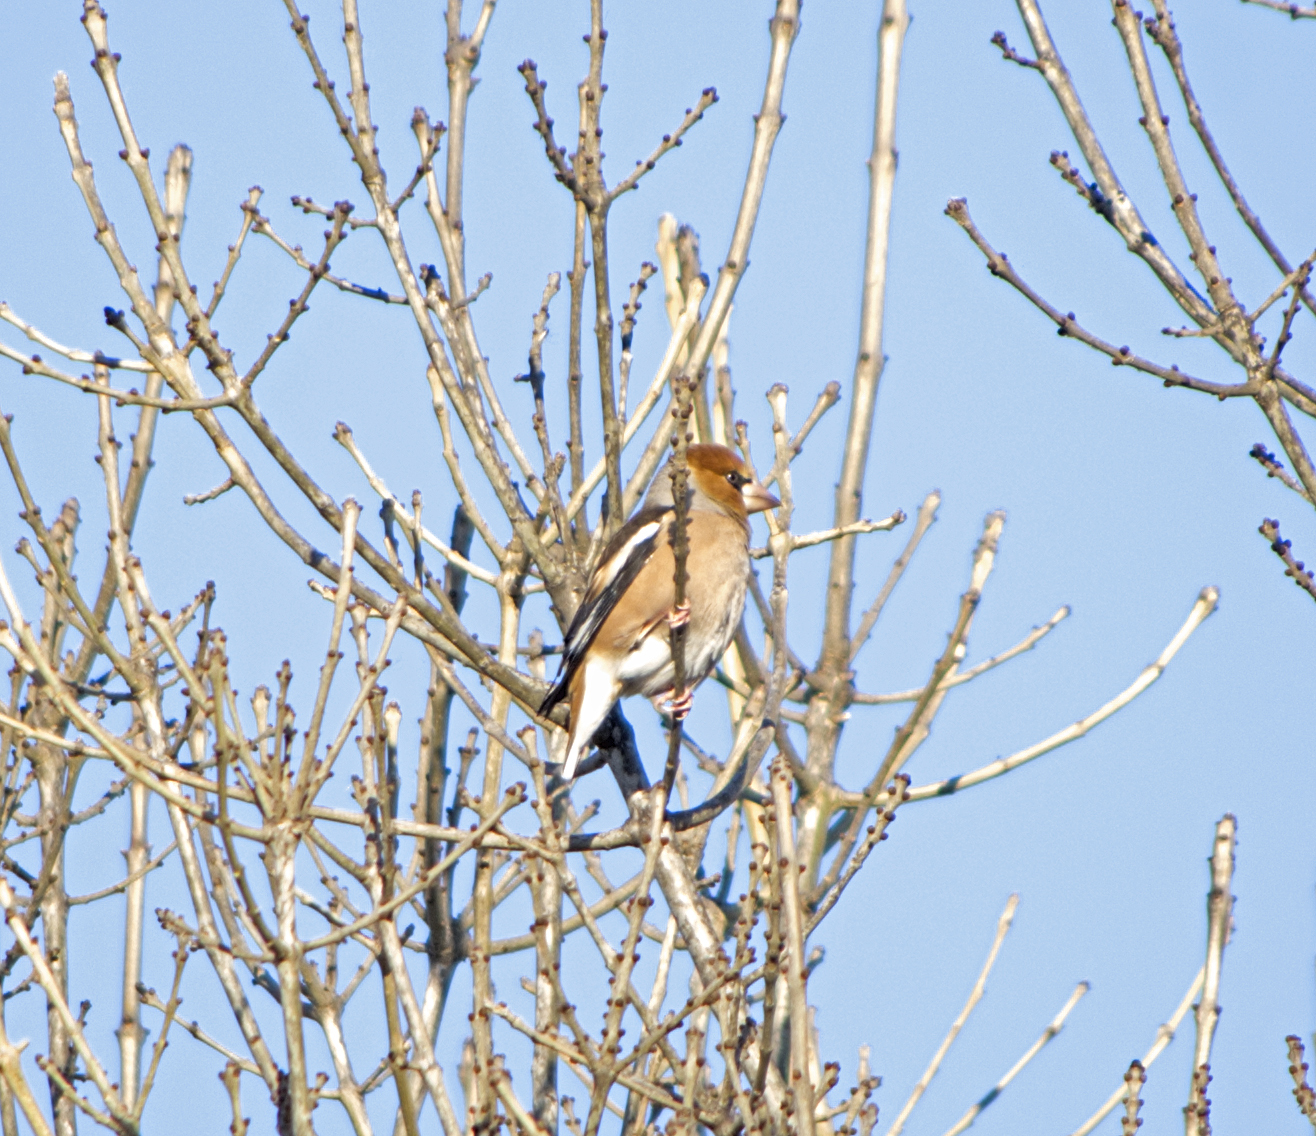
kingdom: Animalia
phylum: Chordata
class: Aves
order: Passeriformes
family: Fringillidae
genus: Coccothraustes
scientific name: Coccothraustes coccothraustes
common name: Hawfinch
